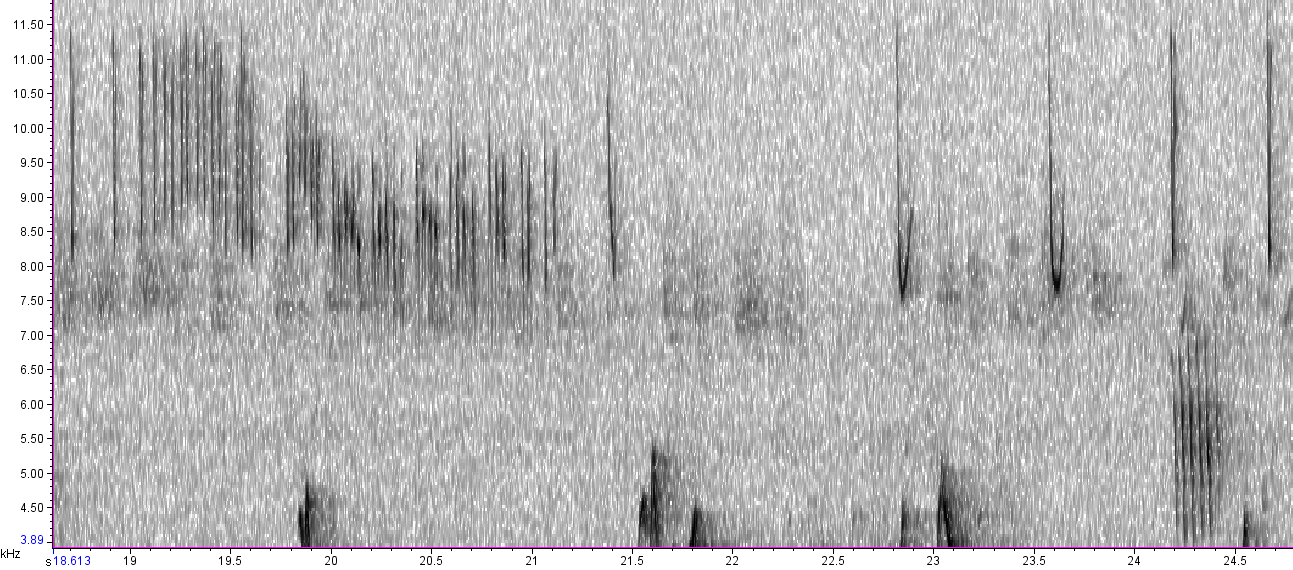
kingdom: Animalia
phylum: Chordata
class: Aves
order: Passeriformes
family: Passerellidae
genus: Spizella
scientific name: Spizella passerina
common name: Chipping sparrow
